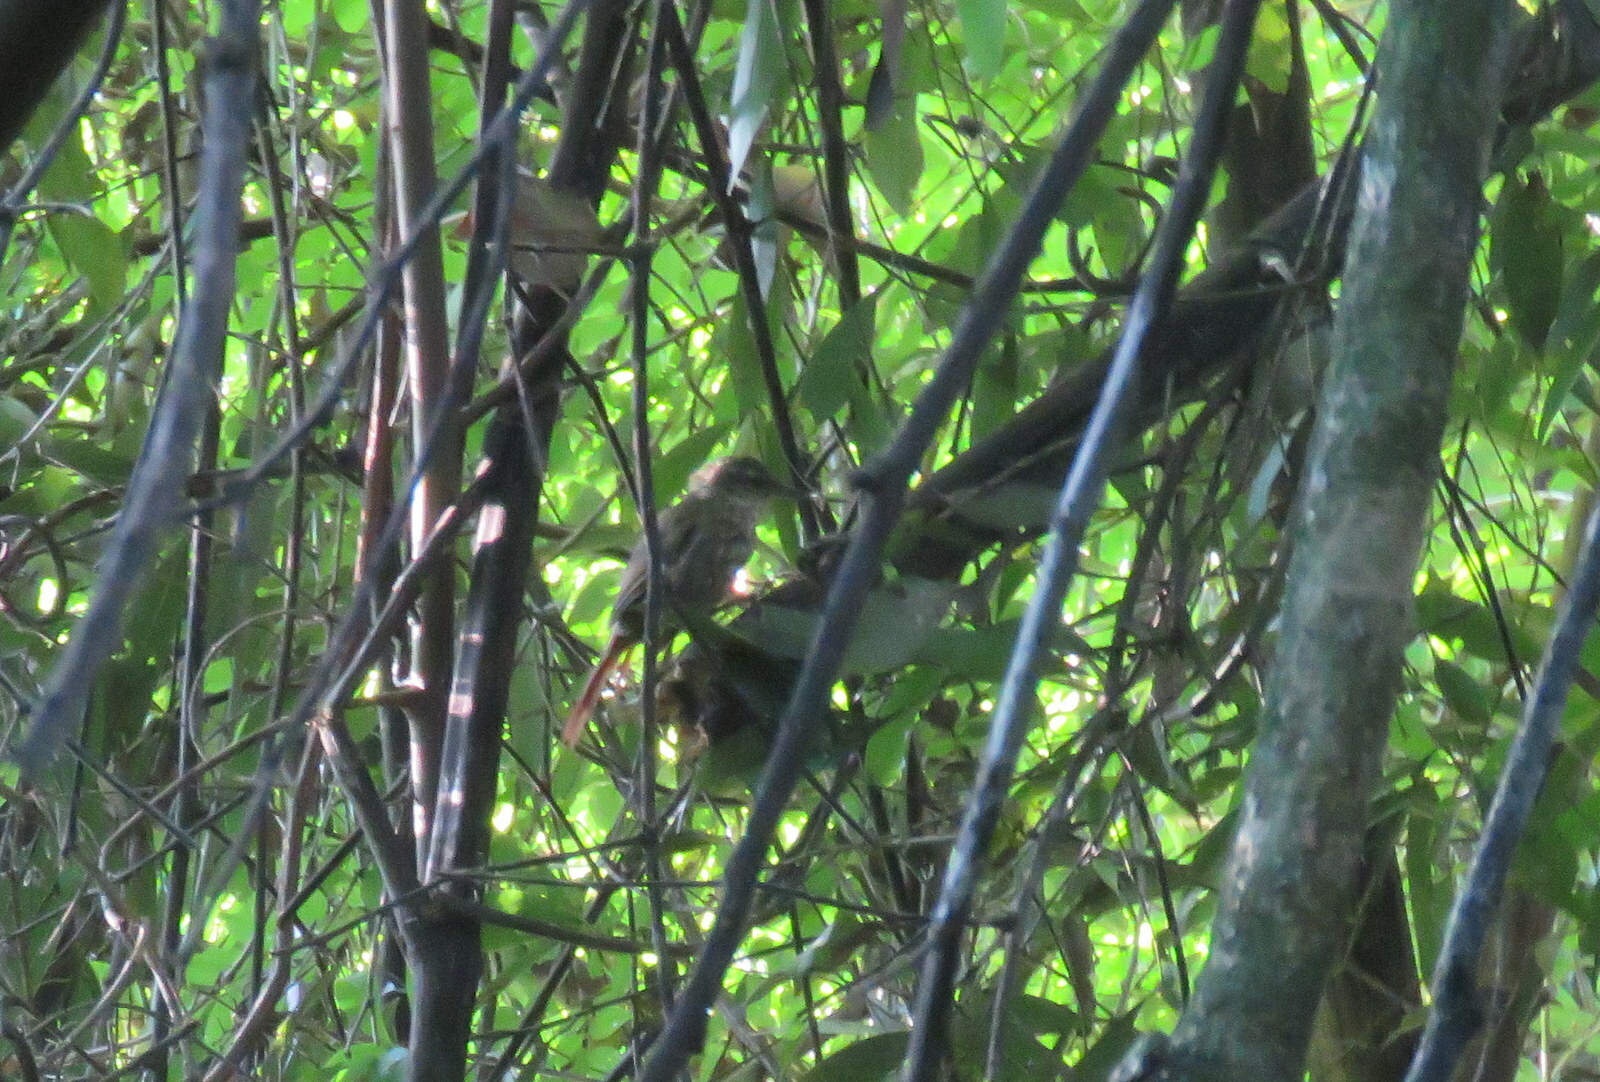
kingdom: Animalia
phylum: Chordata
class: Aves
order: Passeriformes
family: Furnariidae
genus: Syndactyla
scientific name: Syndactyla rufosuperciliata
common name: Buff-browed foliage-gleaner
